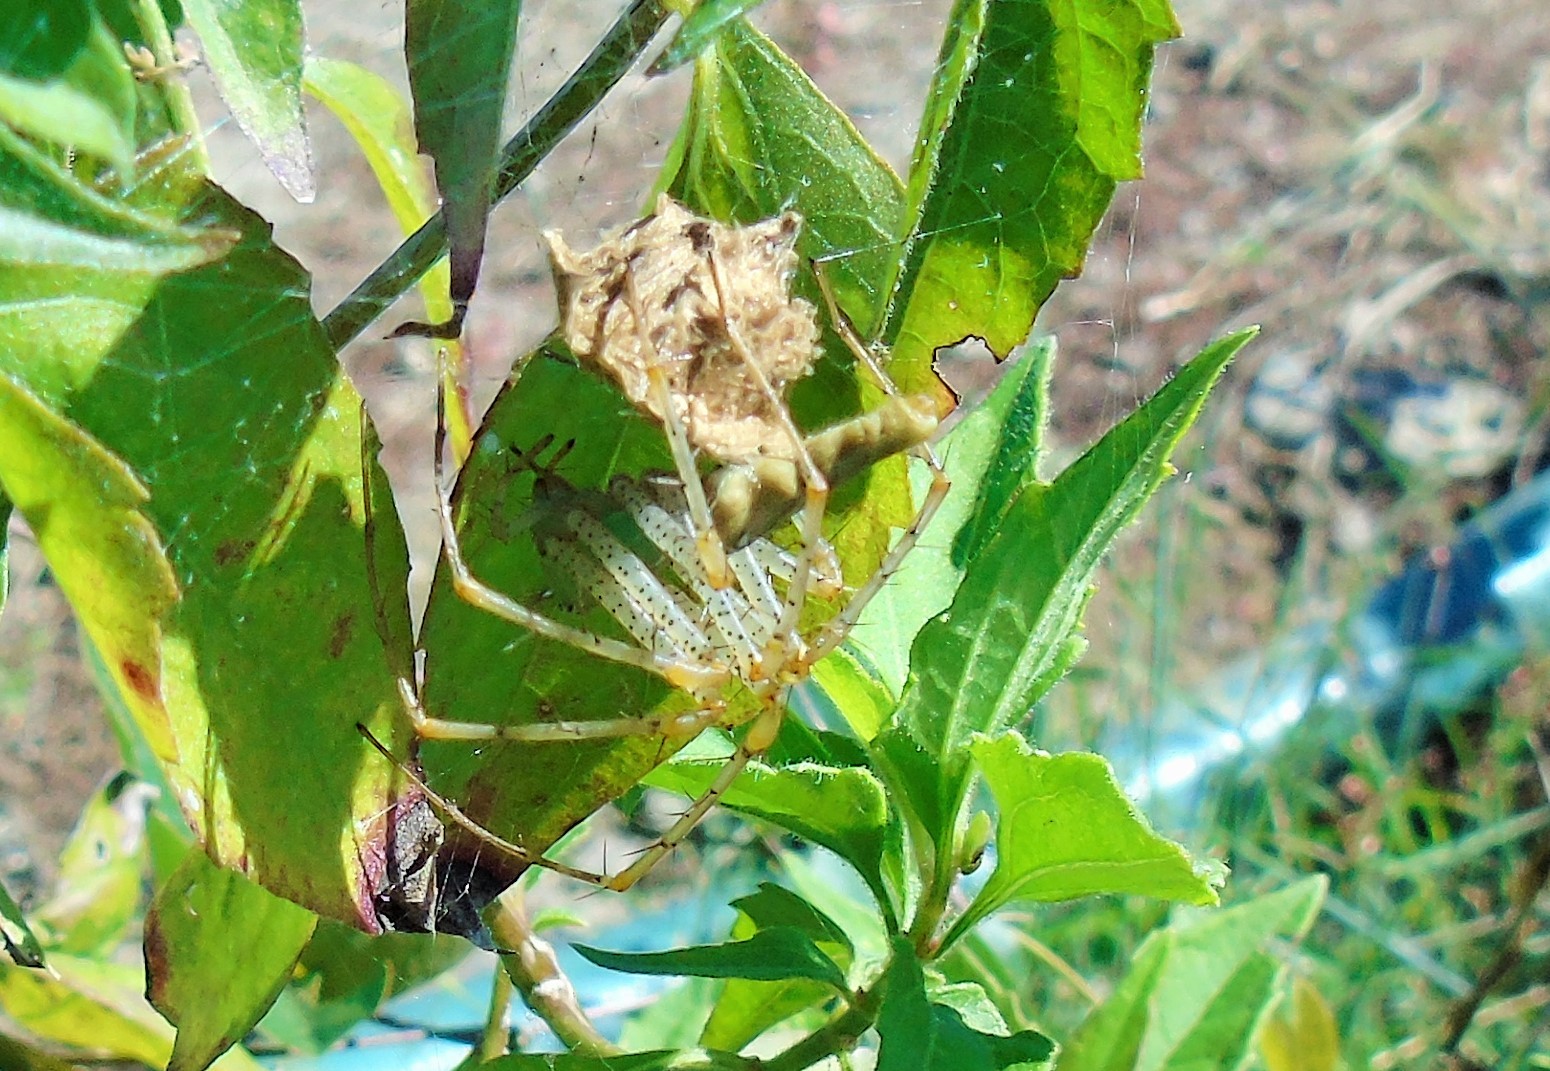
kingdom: Animalia
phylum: Arthropoda
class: Arachnida
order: Araneae
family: Oxyopidae
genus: Peucetia
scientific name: Peucetia
